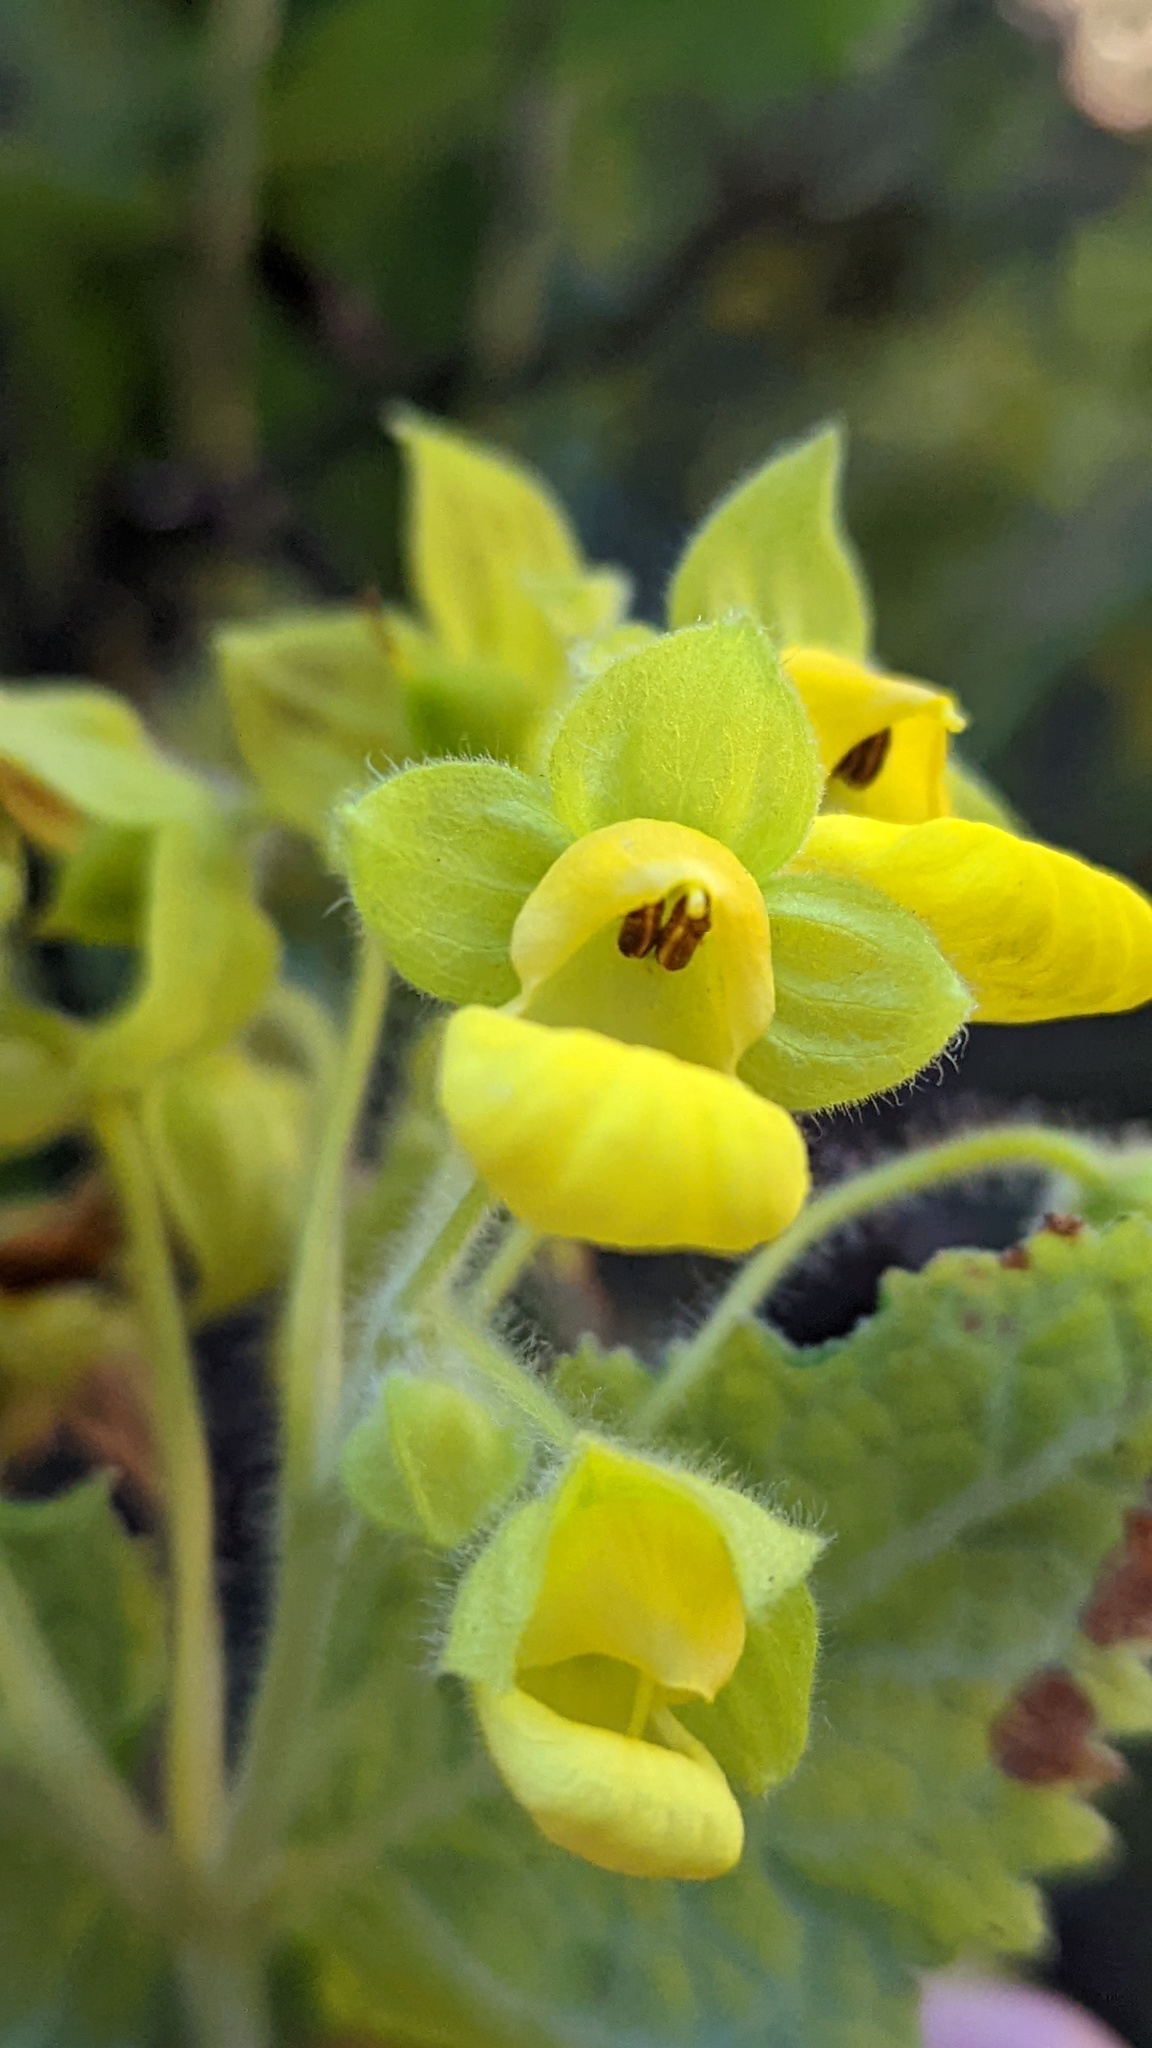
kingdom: Plantae
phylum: Tracheophyta
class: Magnoliopsida
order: Lamiales
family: Calceolariaceae
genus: Calceolaria
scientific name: Calceolaria perfoliata
